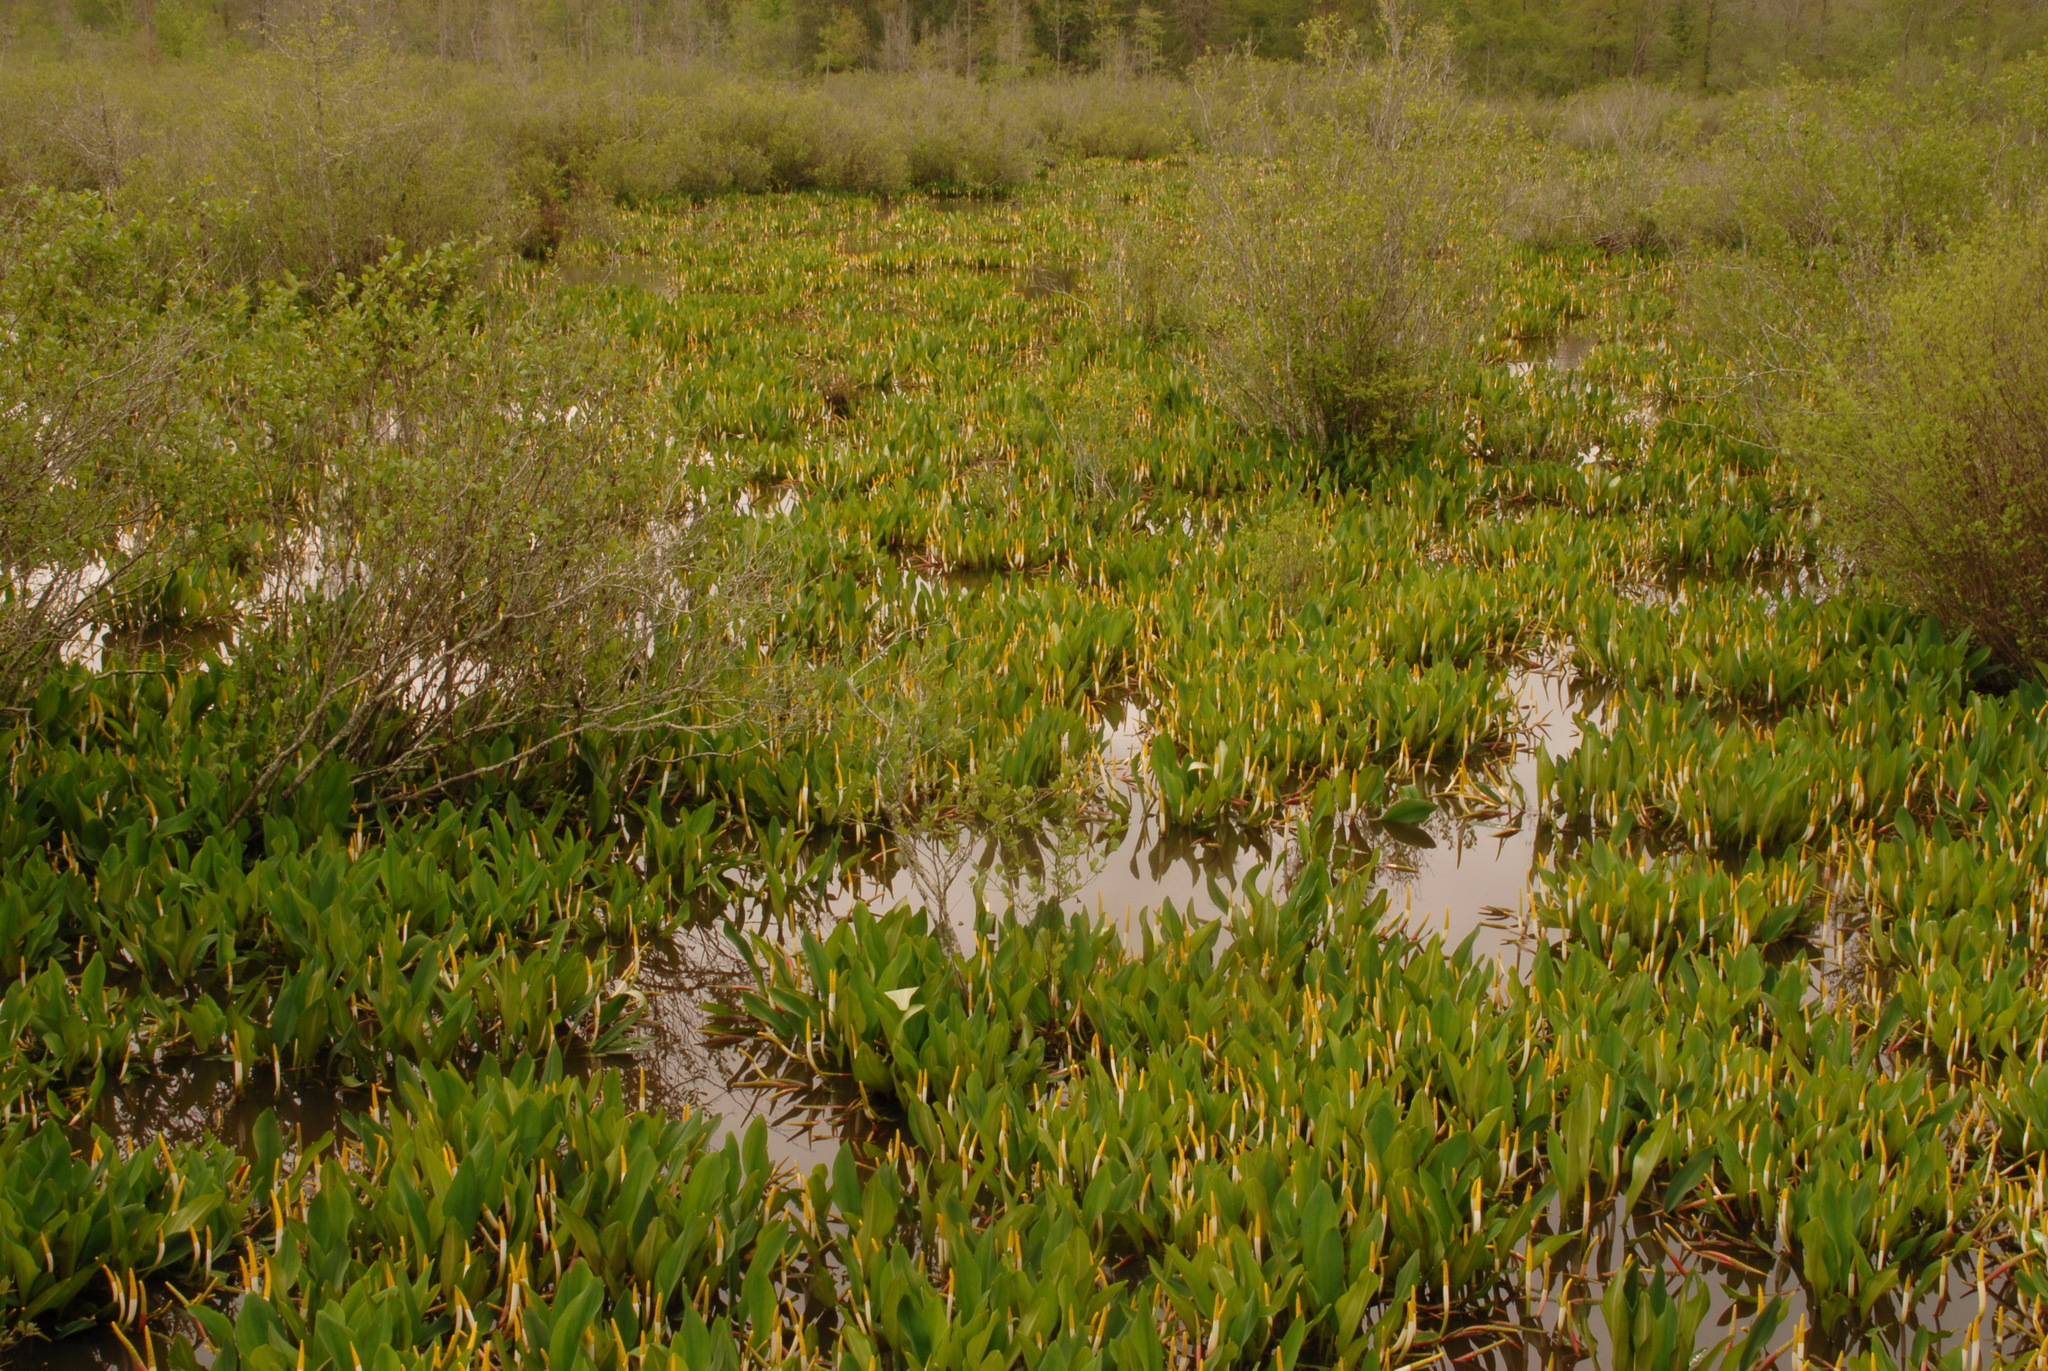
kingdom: Plantae
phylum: Tracheophyta
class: Liliopsida
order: Alismatales
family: Araceae
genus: Orontium
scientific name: Orontium aquaticum
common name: Golden-club
